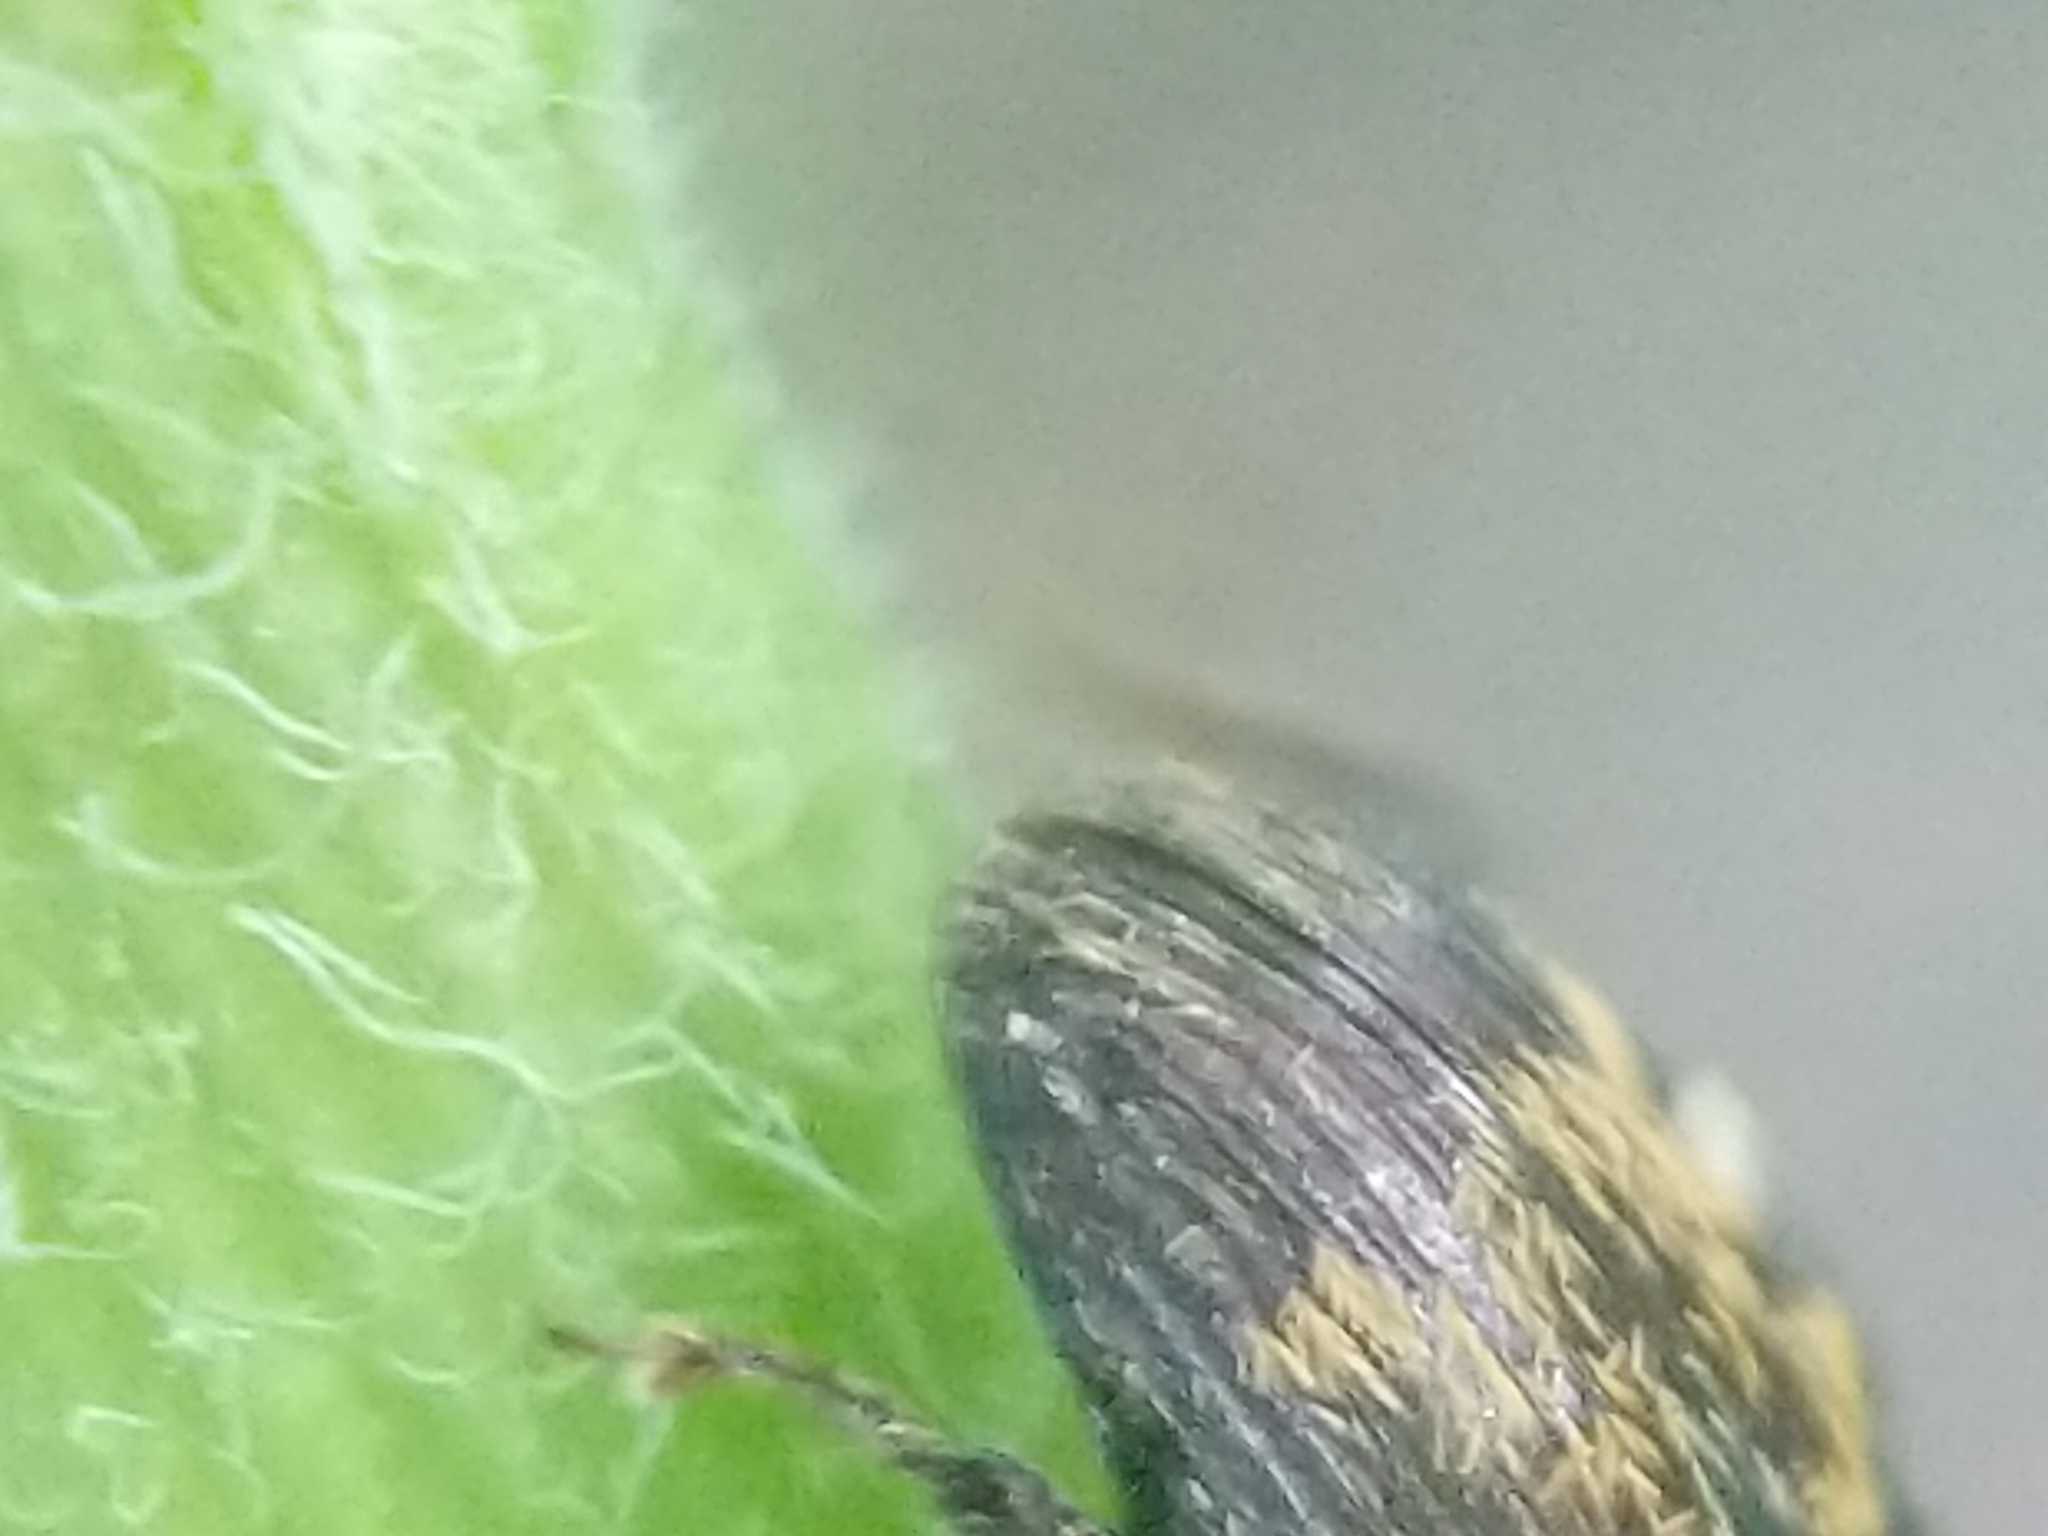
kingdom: Animalia
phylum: Arthropoda
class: Insecta
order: Coleoptera
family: Curculionidae
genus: Glyptobaris
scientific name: Glyptobaris lecontei
